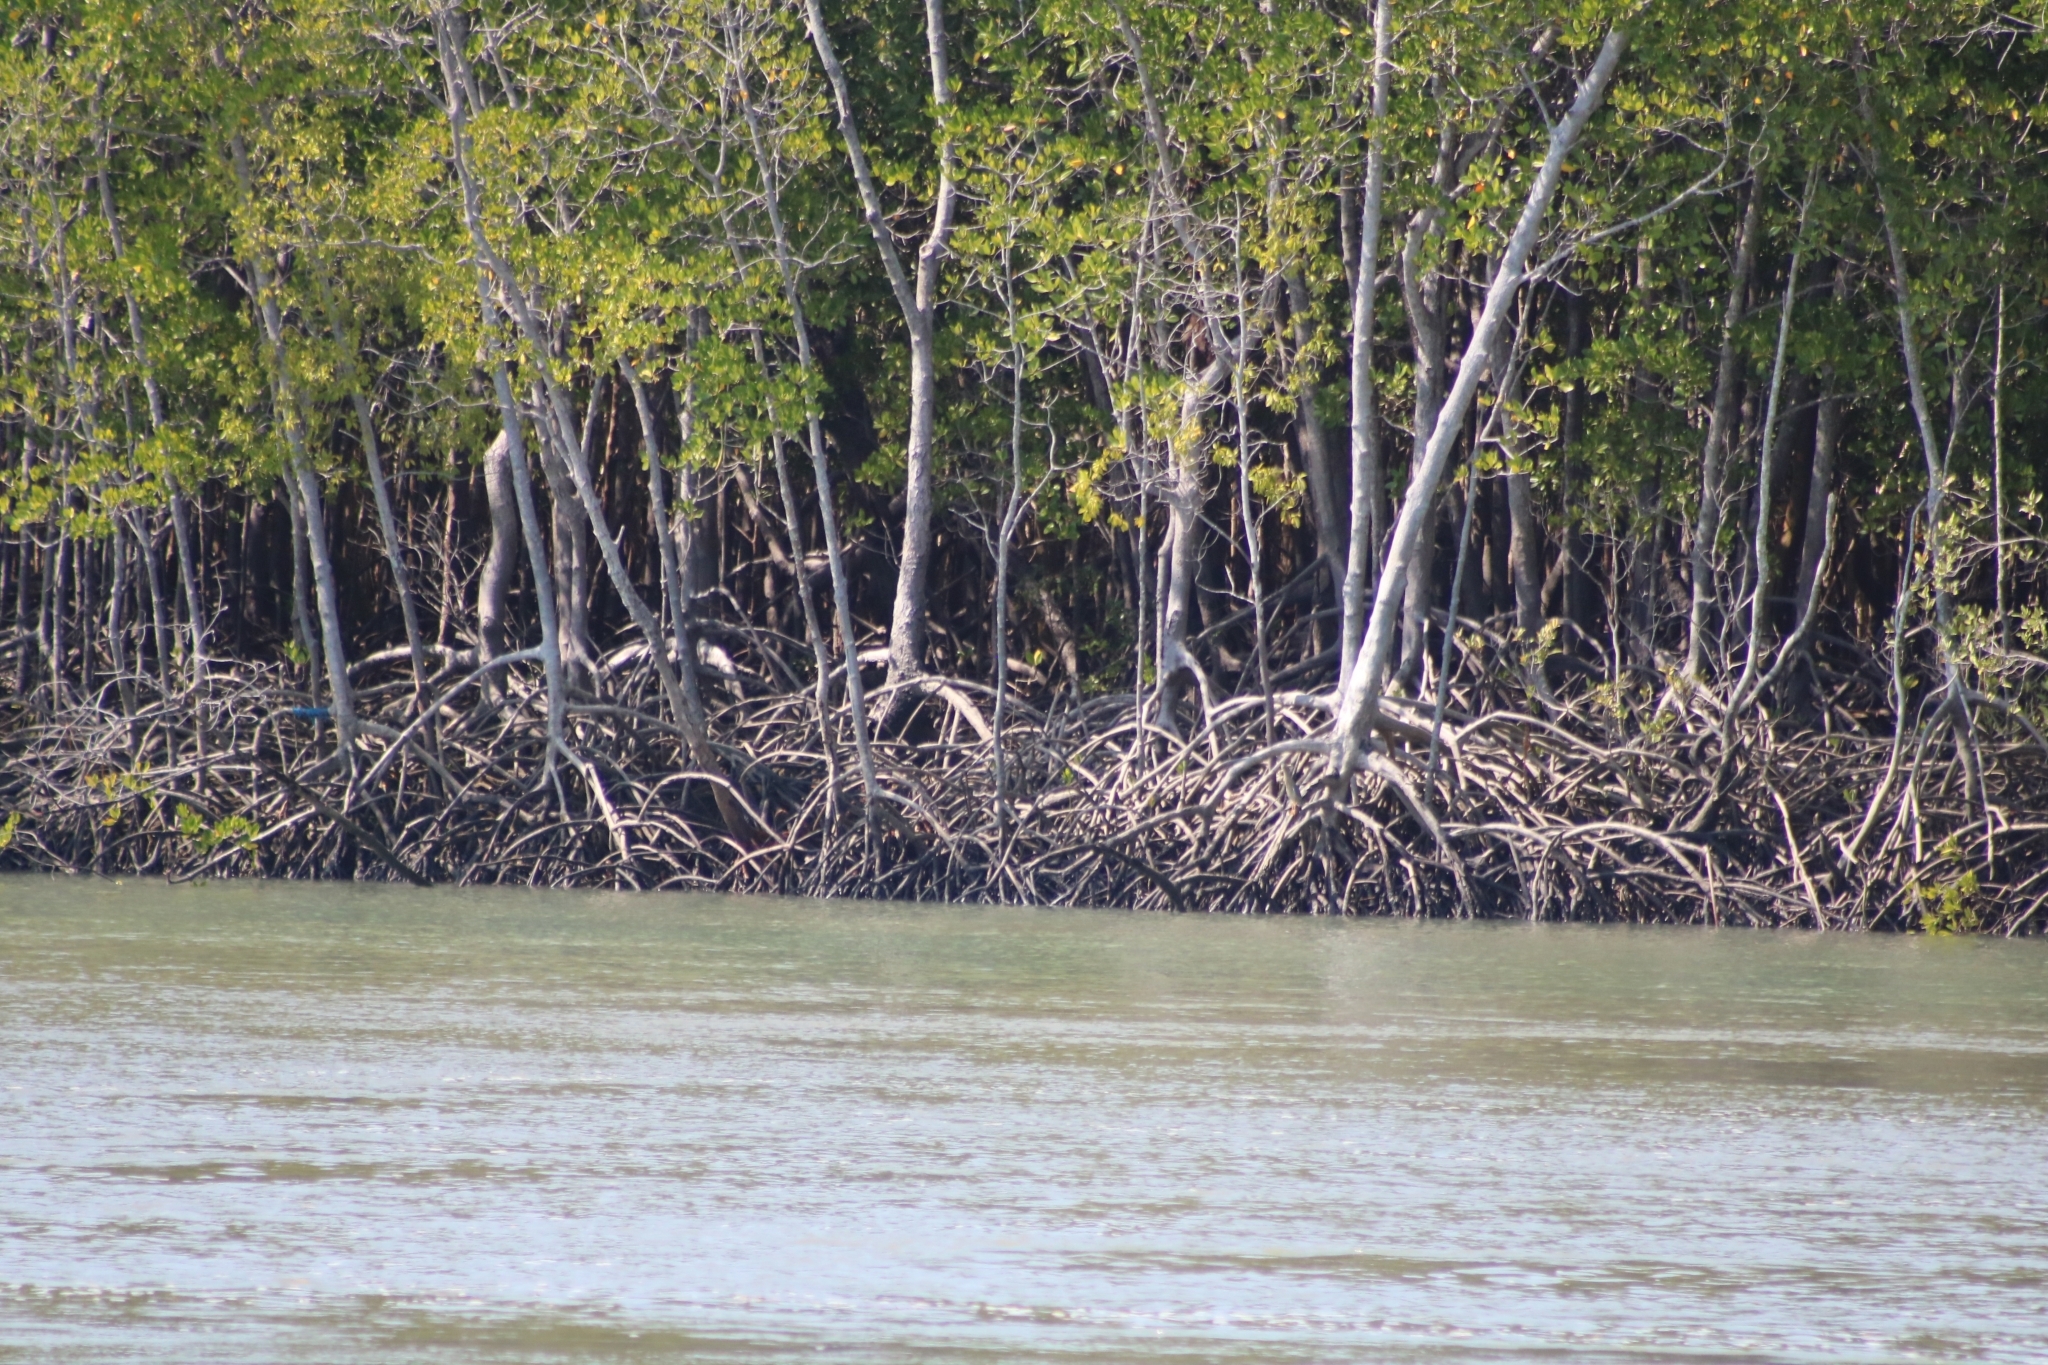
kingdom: Animalia
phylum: Chordata
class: Aves
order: Pelecaniformes
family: Ardeidae
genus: Butorides
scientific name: Butorides striata
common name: Striated heron
